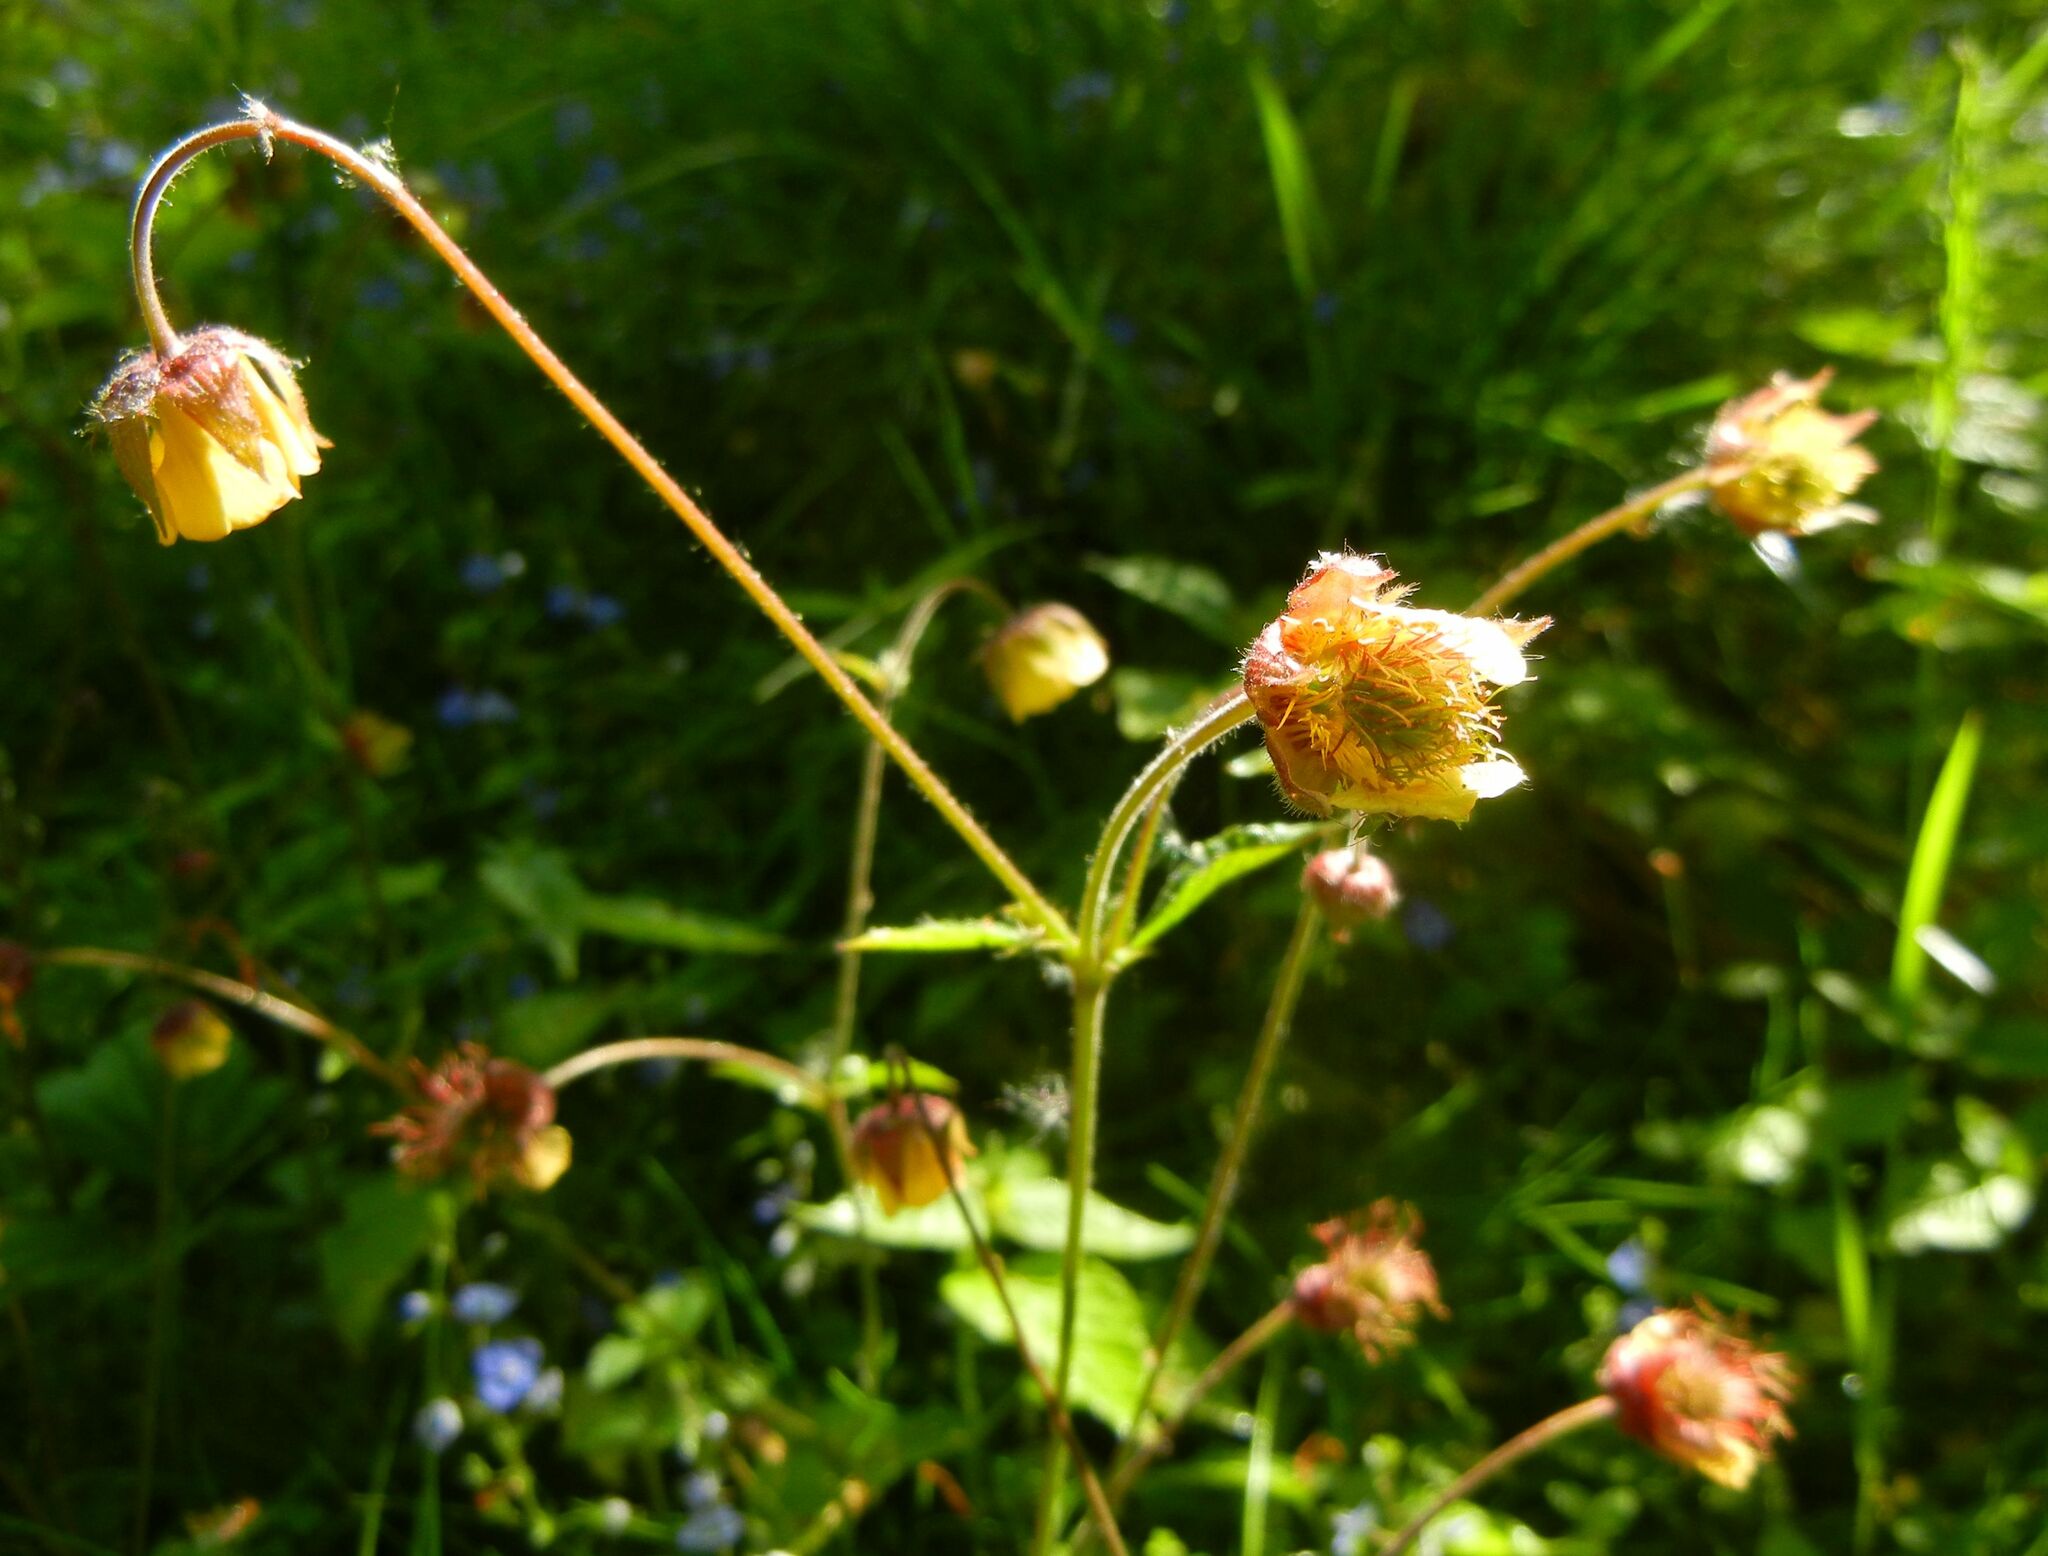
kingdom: Plantae
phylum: Tracheophyta
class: Magnoliopsida
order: Rosales
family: Rosaceae
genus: Geum
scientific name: Geum intermedium
